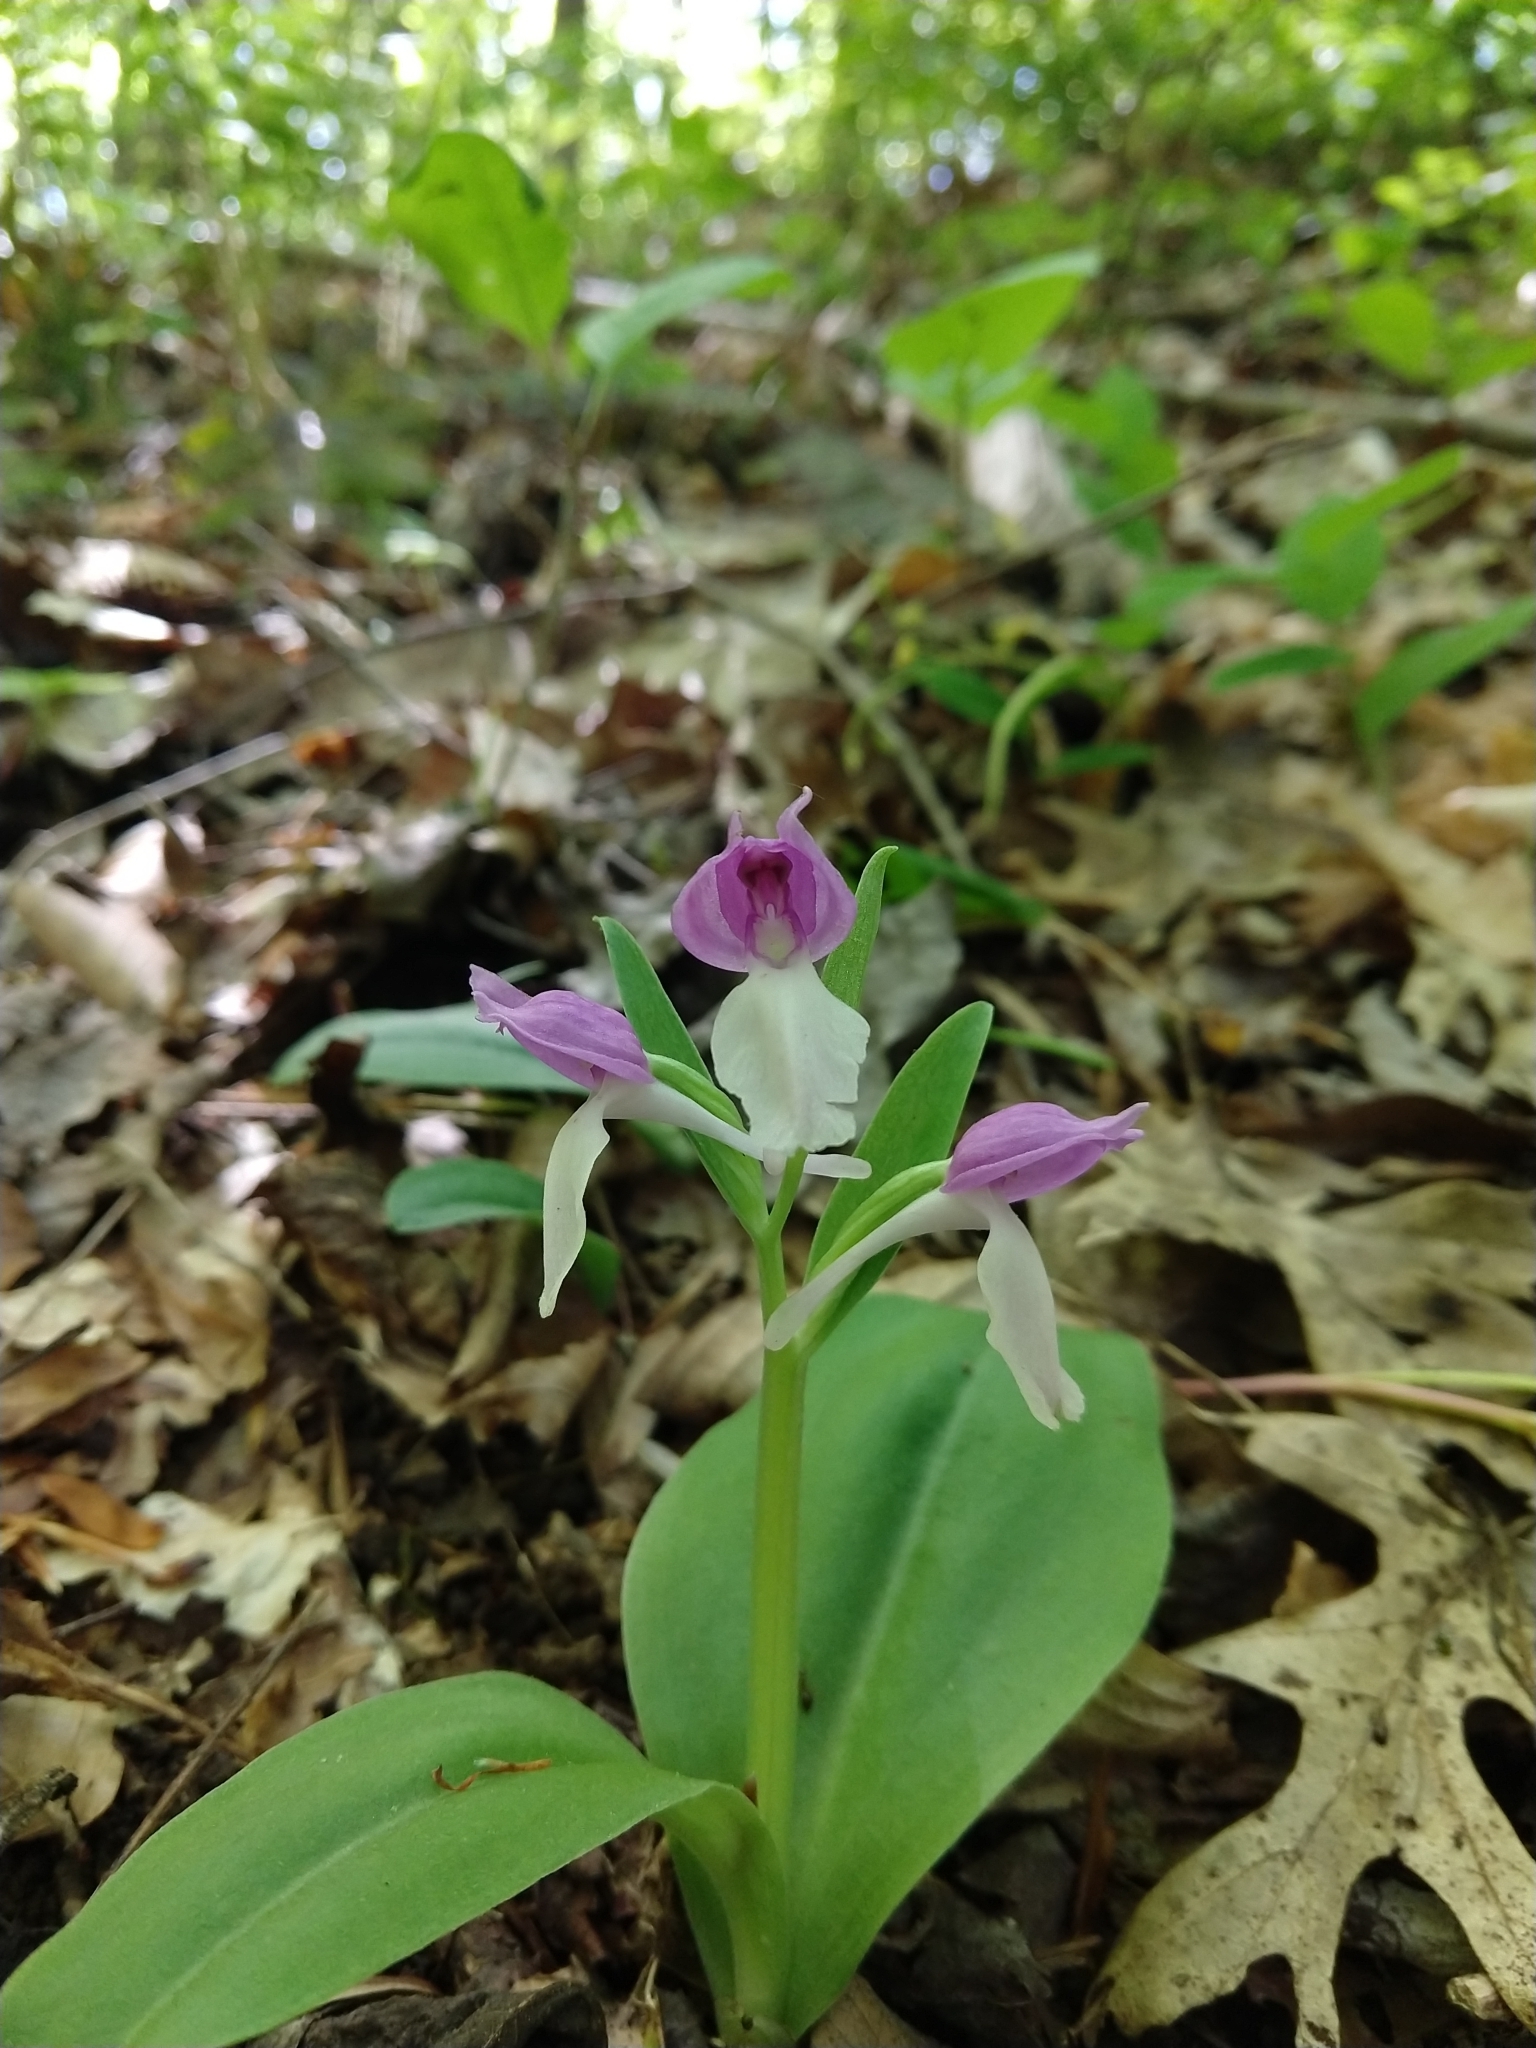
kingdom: Plantae
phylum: Tracheophyta
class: Liliopsida
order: Asparagales
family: Orchidaceae
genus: Galearis
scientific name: Galearis spectabilis
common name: Purple-hooded orchis
